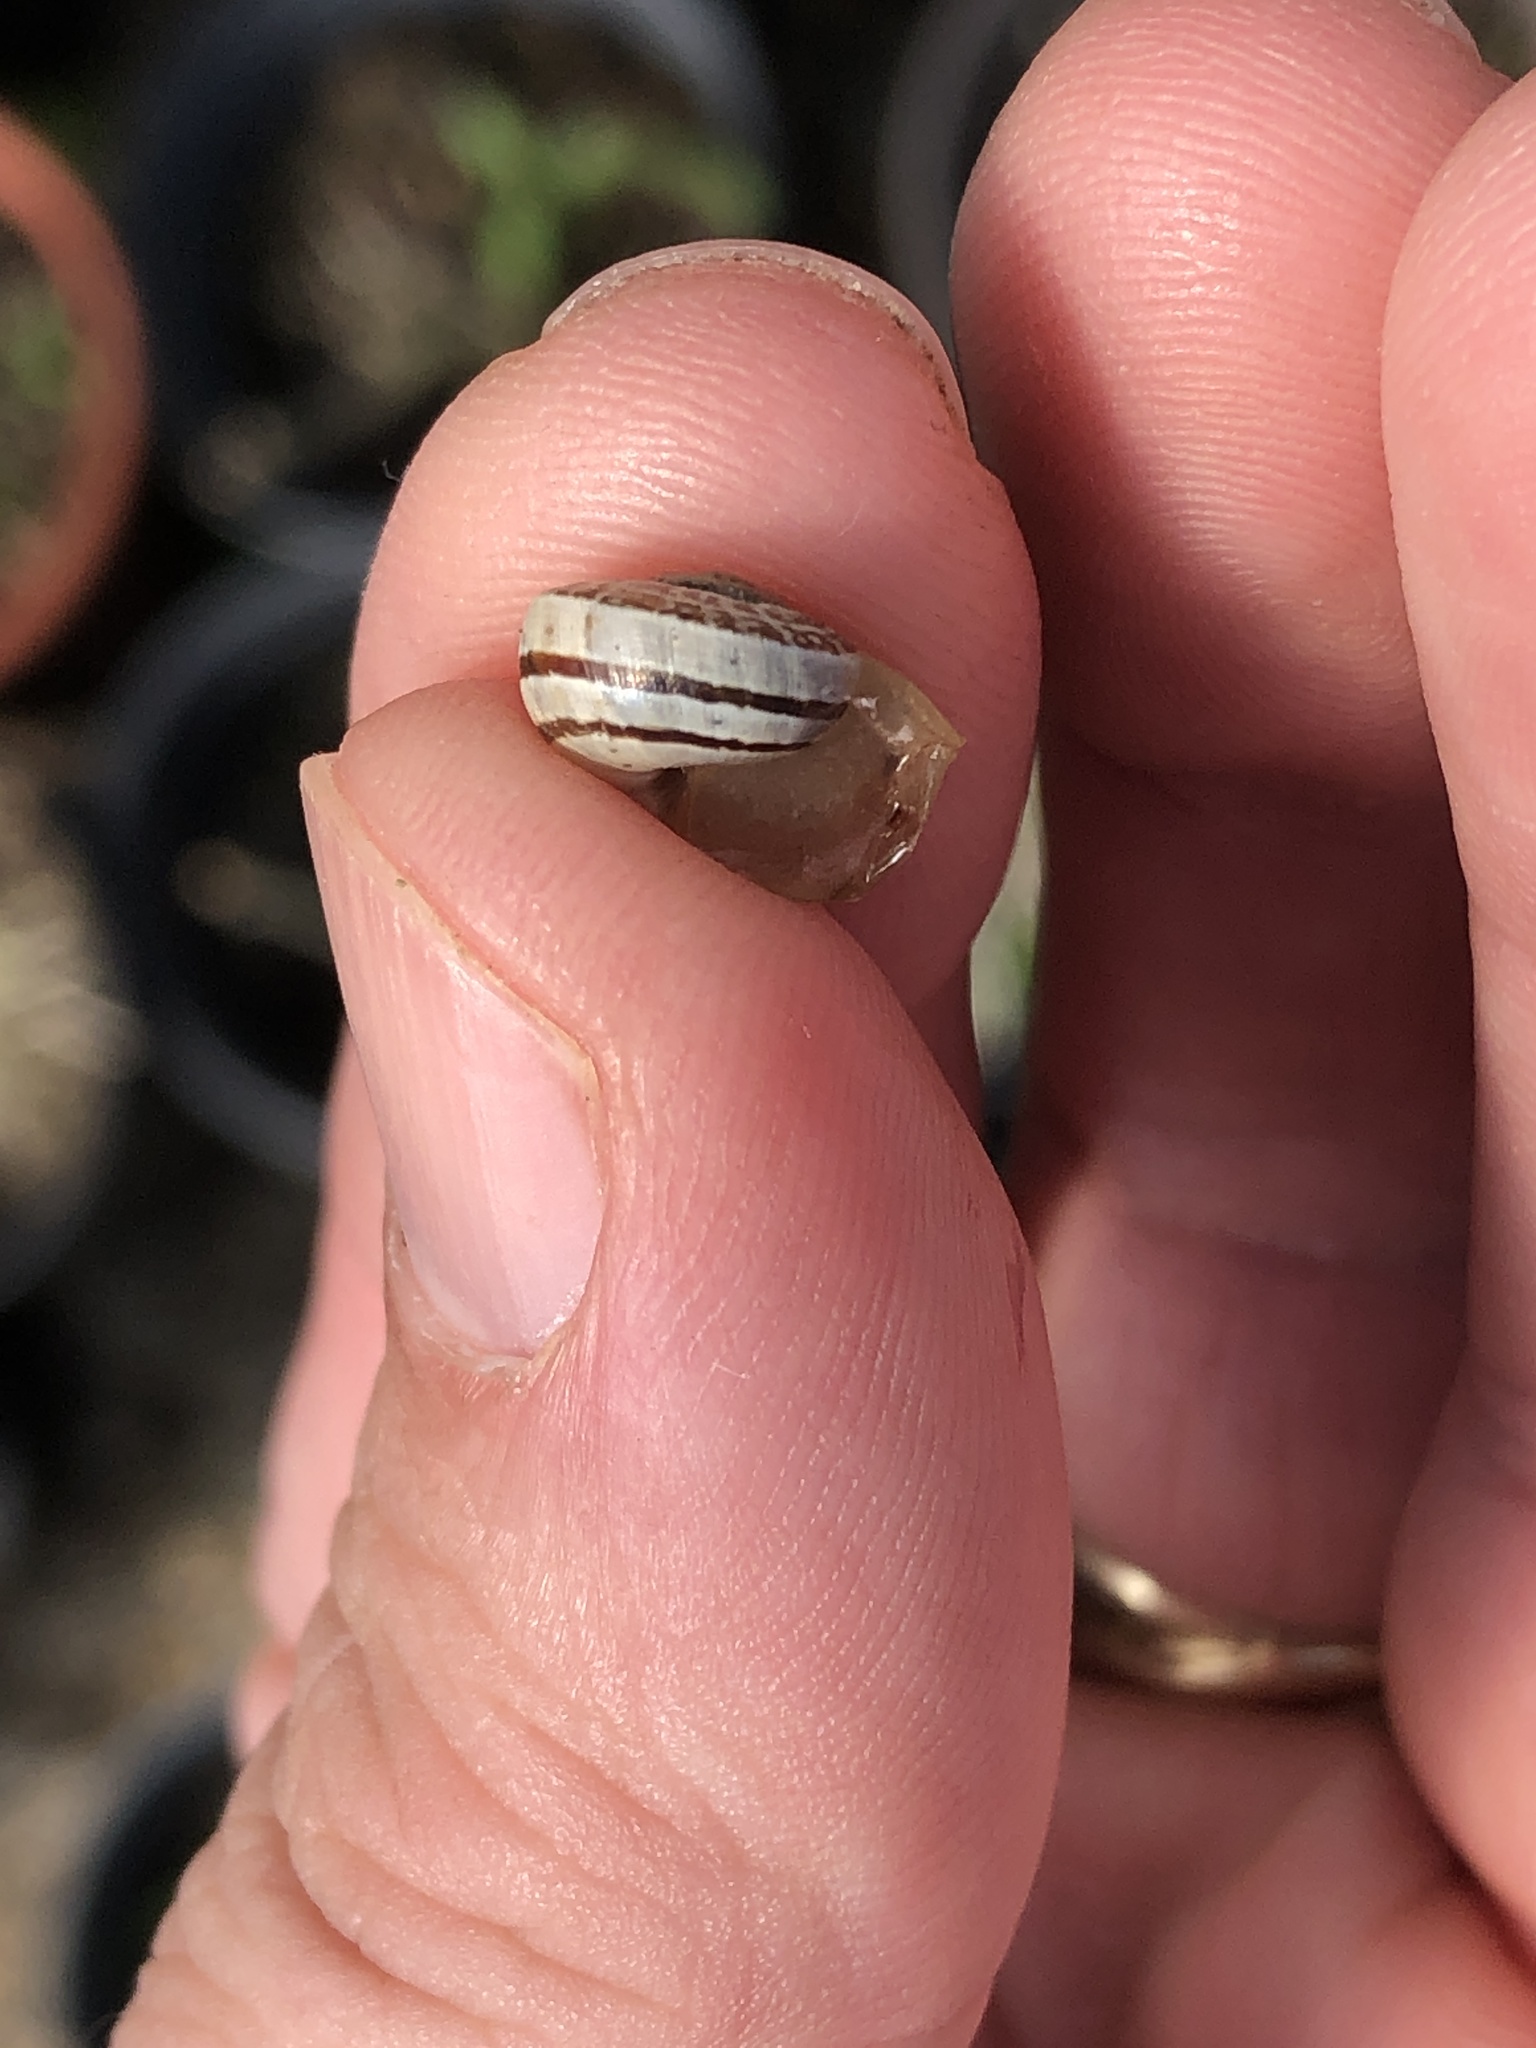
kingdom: Animalia
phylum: Mollusca
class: Gastropoda
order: Stylommatophora
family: Helicidae
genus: Otala
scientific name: Otala lactea
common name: Milk snail
